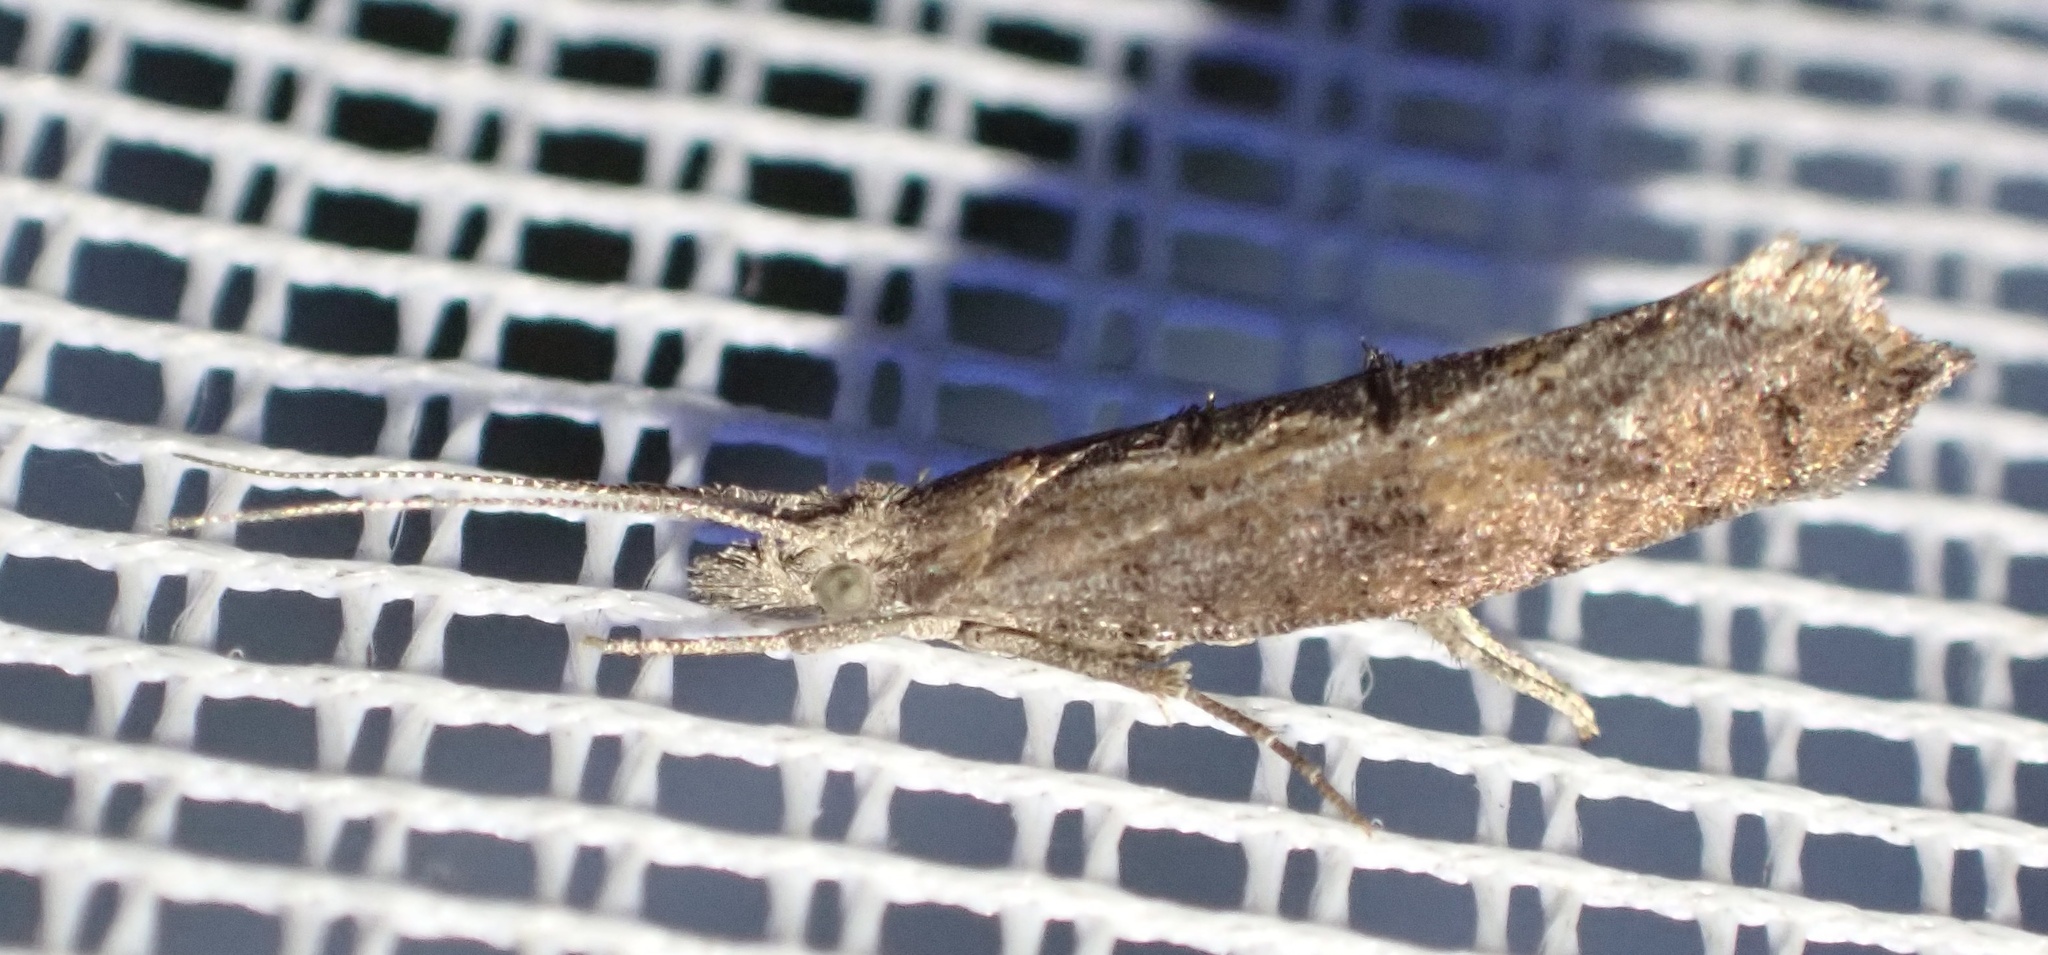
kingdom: Animalia
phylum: Arthropoda
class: Insecta
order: Lepidoptera
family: Ypsolophidae
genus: Ypsolopha
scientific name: Ypsolopha horridella
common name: Dark smudge
